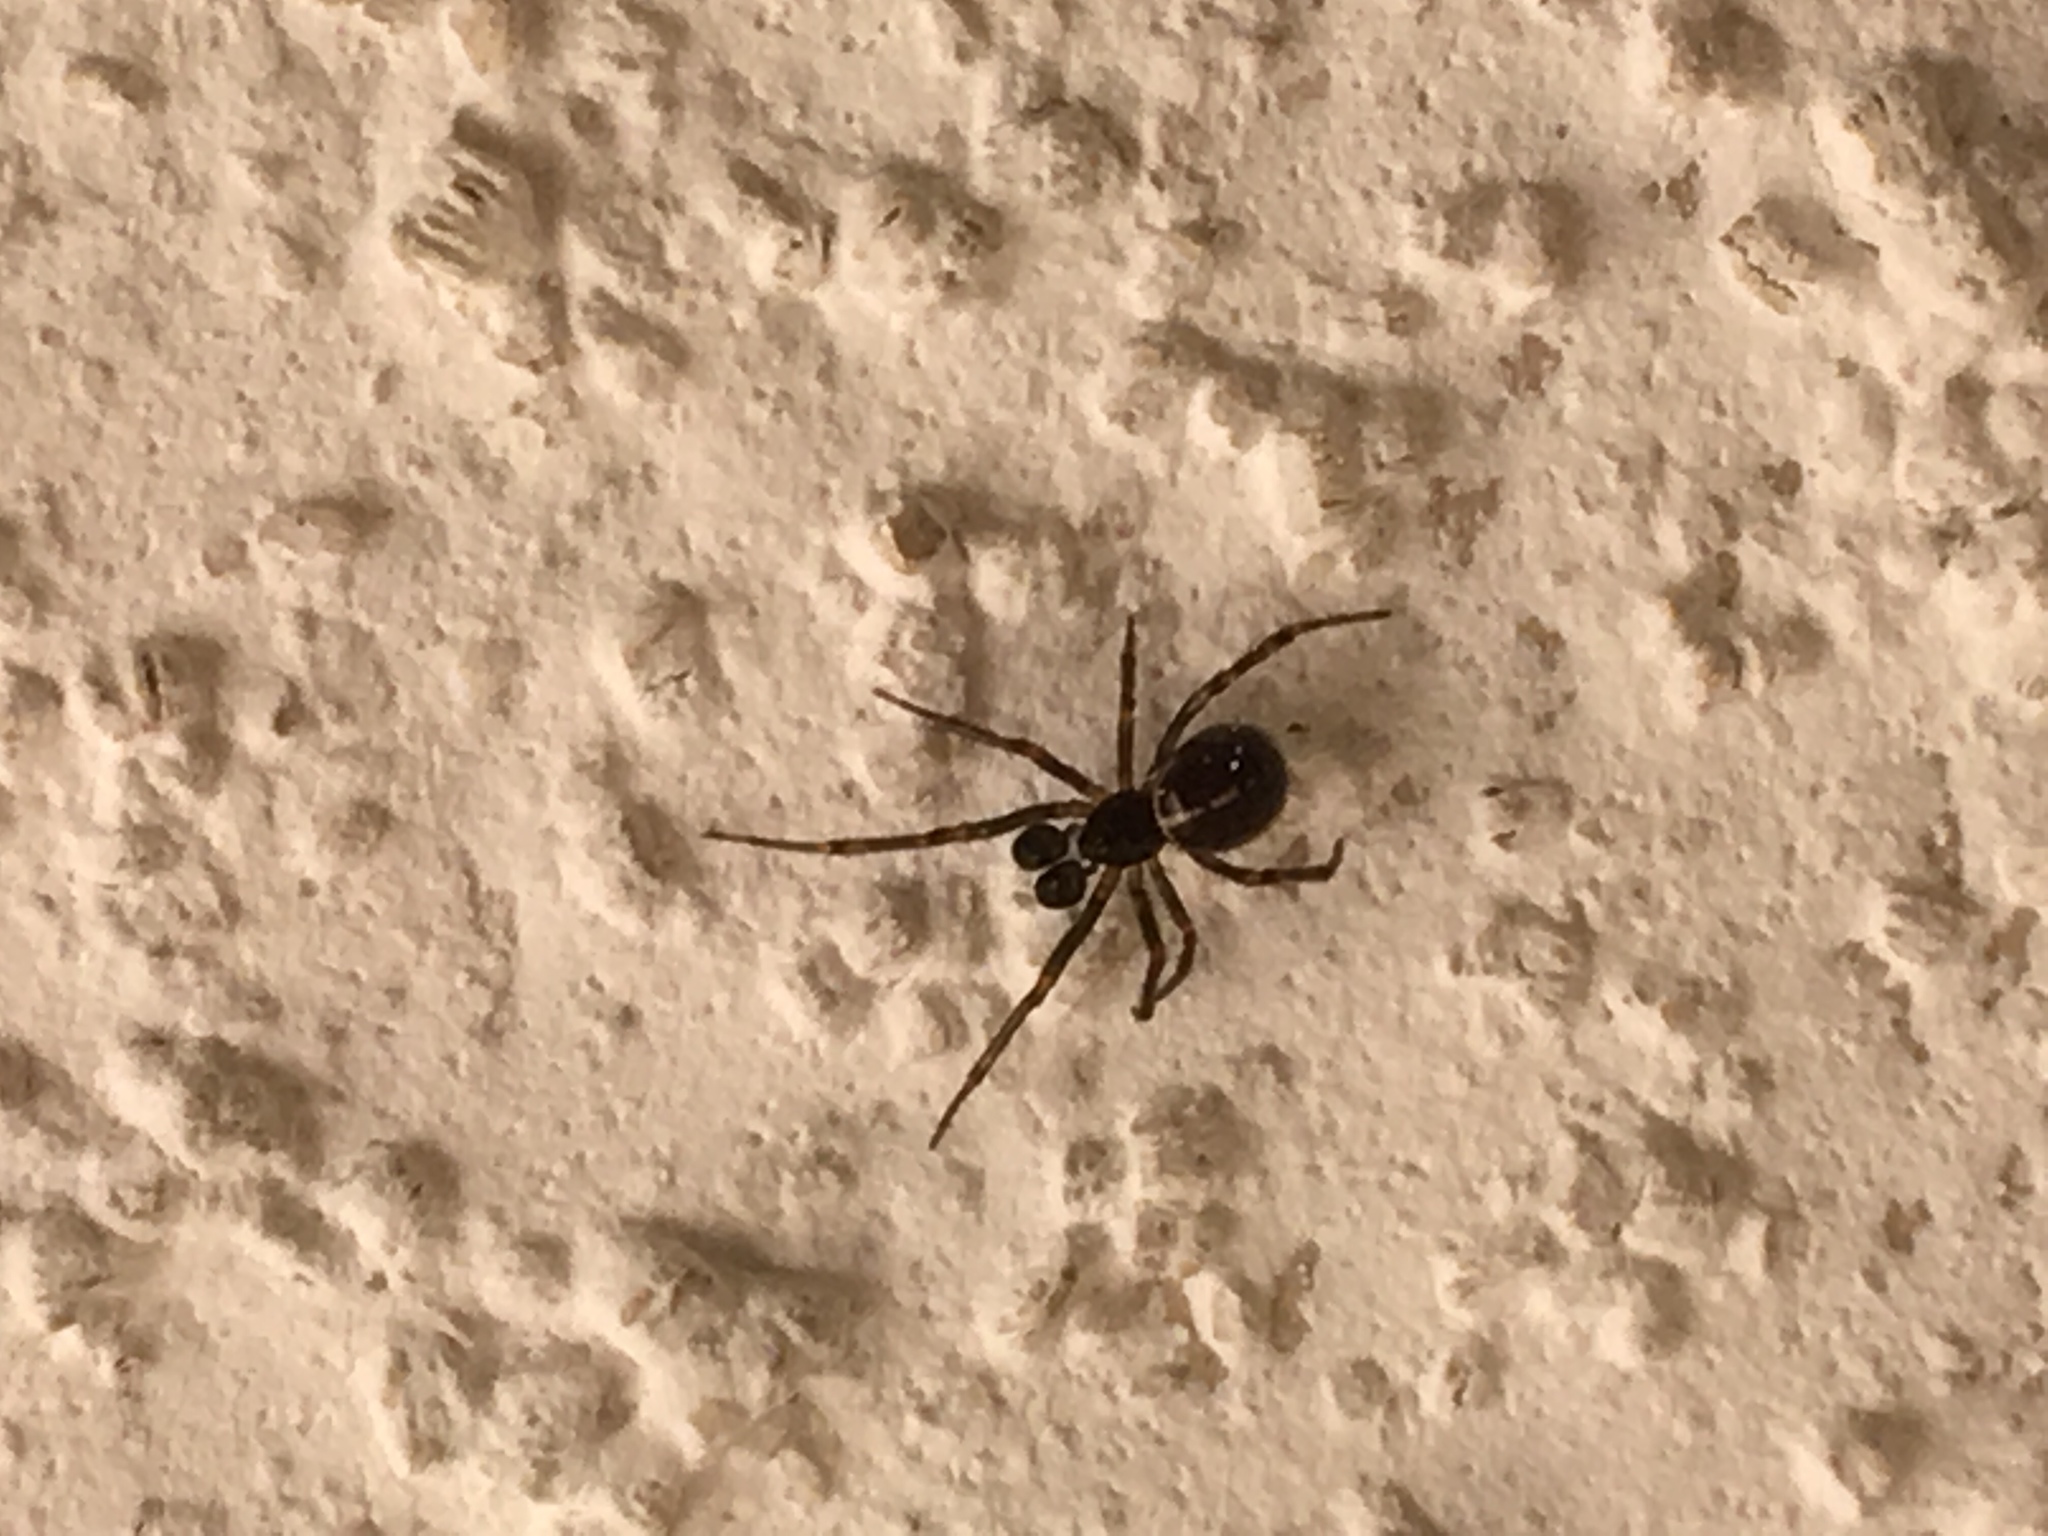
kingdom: Animalia
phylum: Arthropoda
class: Arachnida
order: Araneae
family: Theridiidae
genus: Steatoda
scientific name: Steatoda borealis
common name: Boreal combfoot
